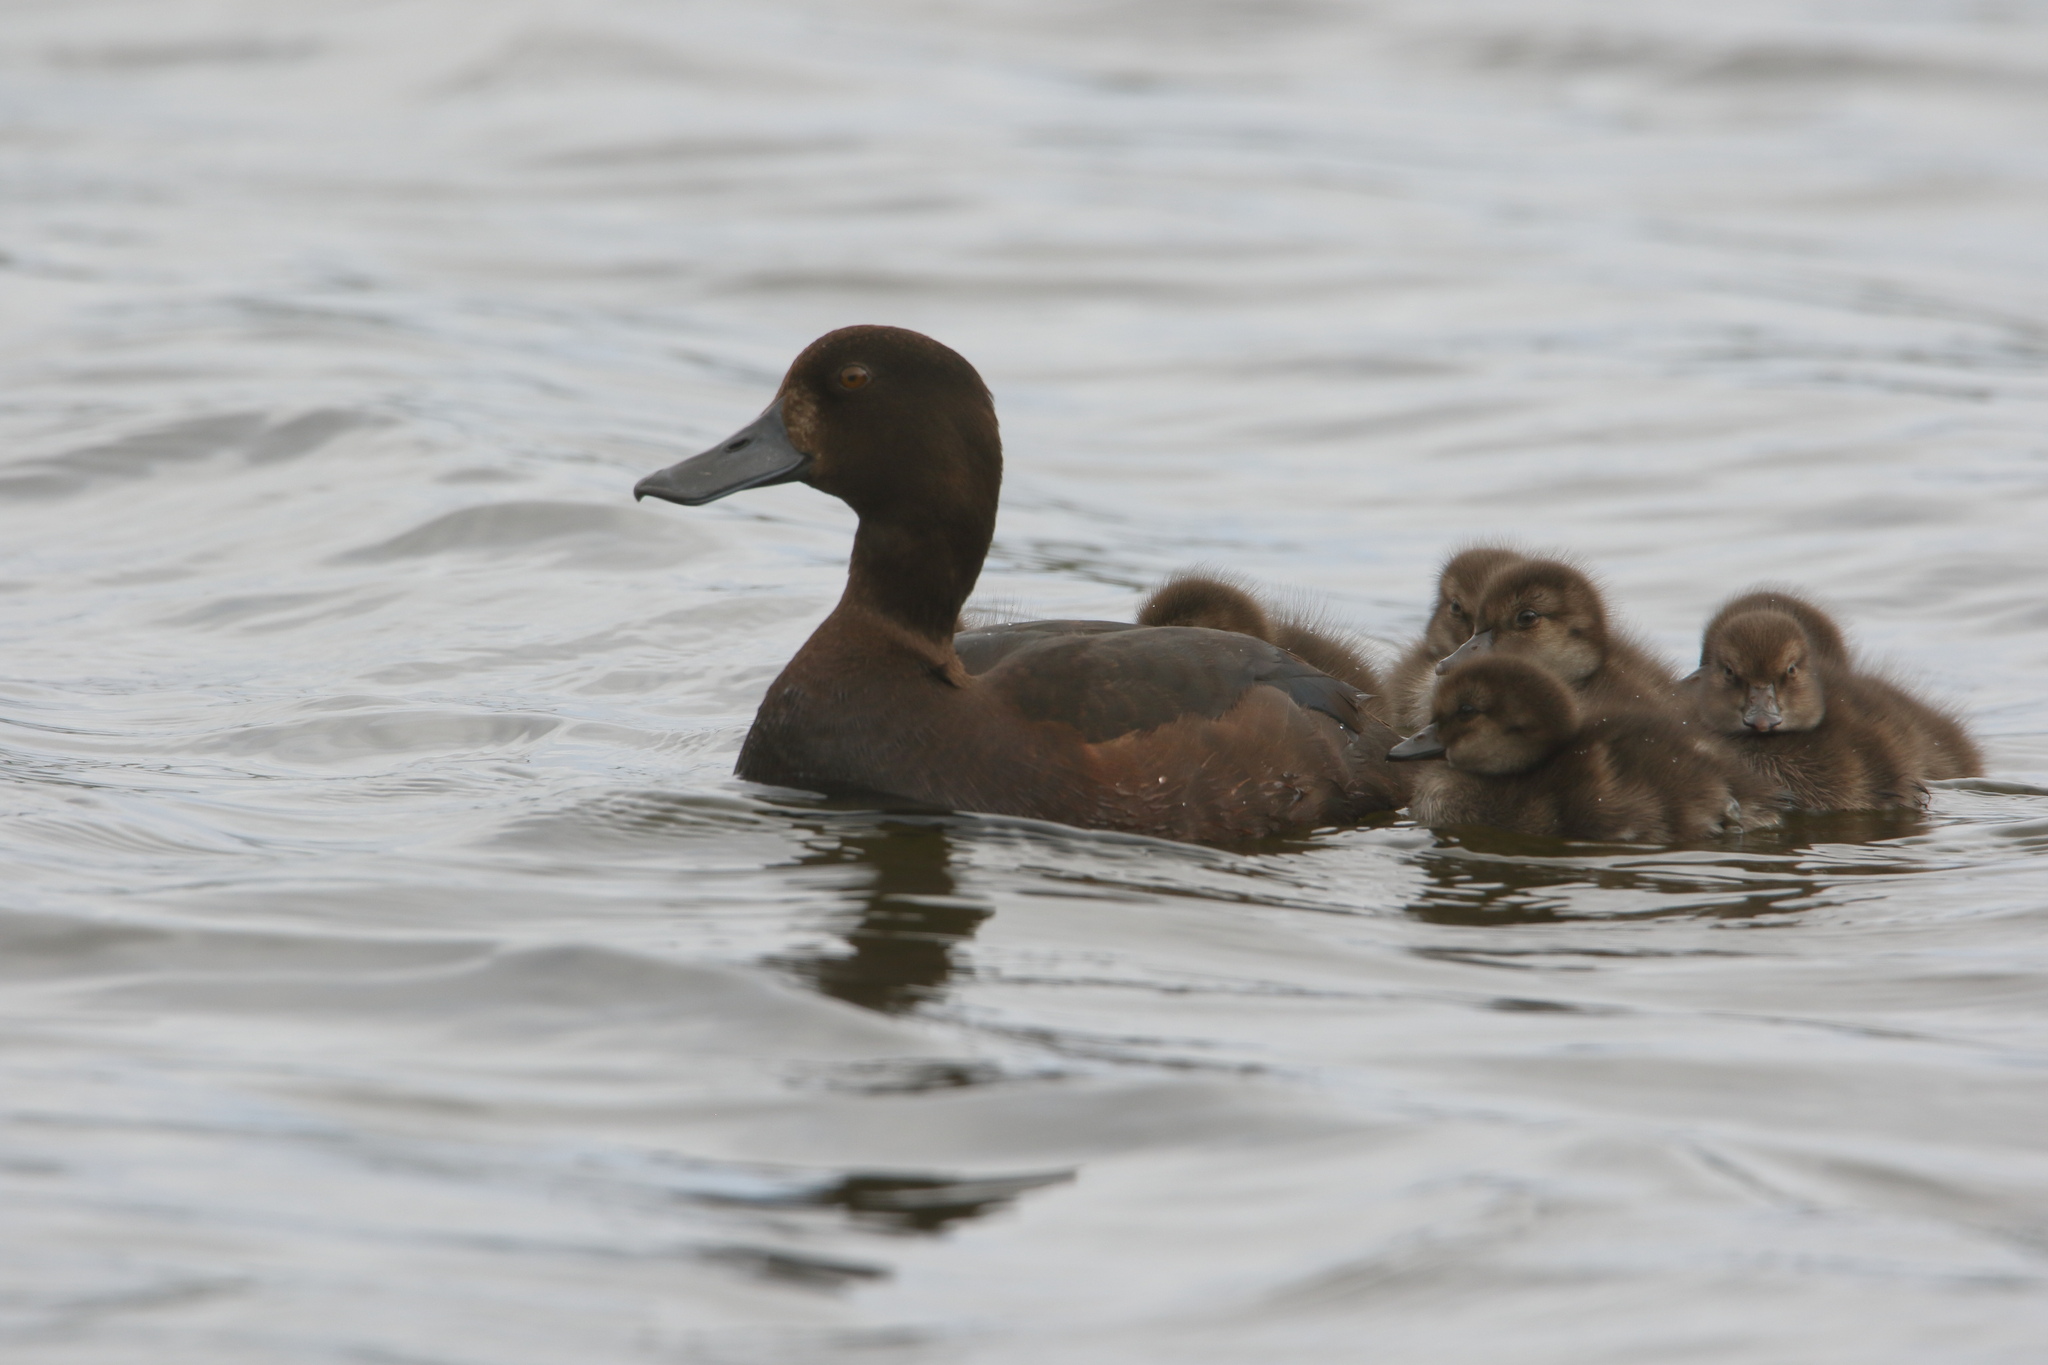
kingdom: Animalia
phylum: Chordata
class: Aves
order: Anseriformes
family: Anatidae
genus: Aythya
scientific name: Aythya novaeseelandiae
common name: New zealand scaup
